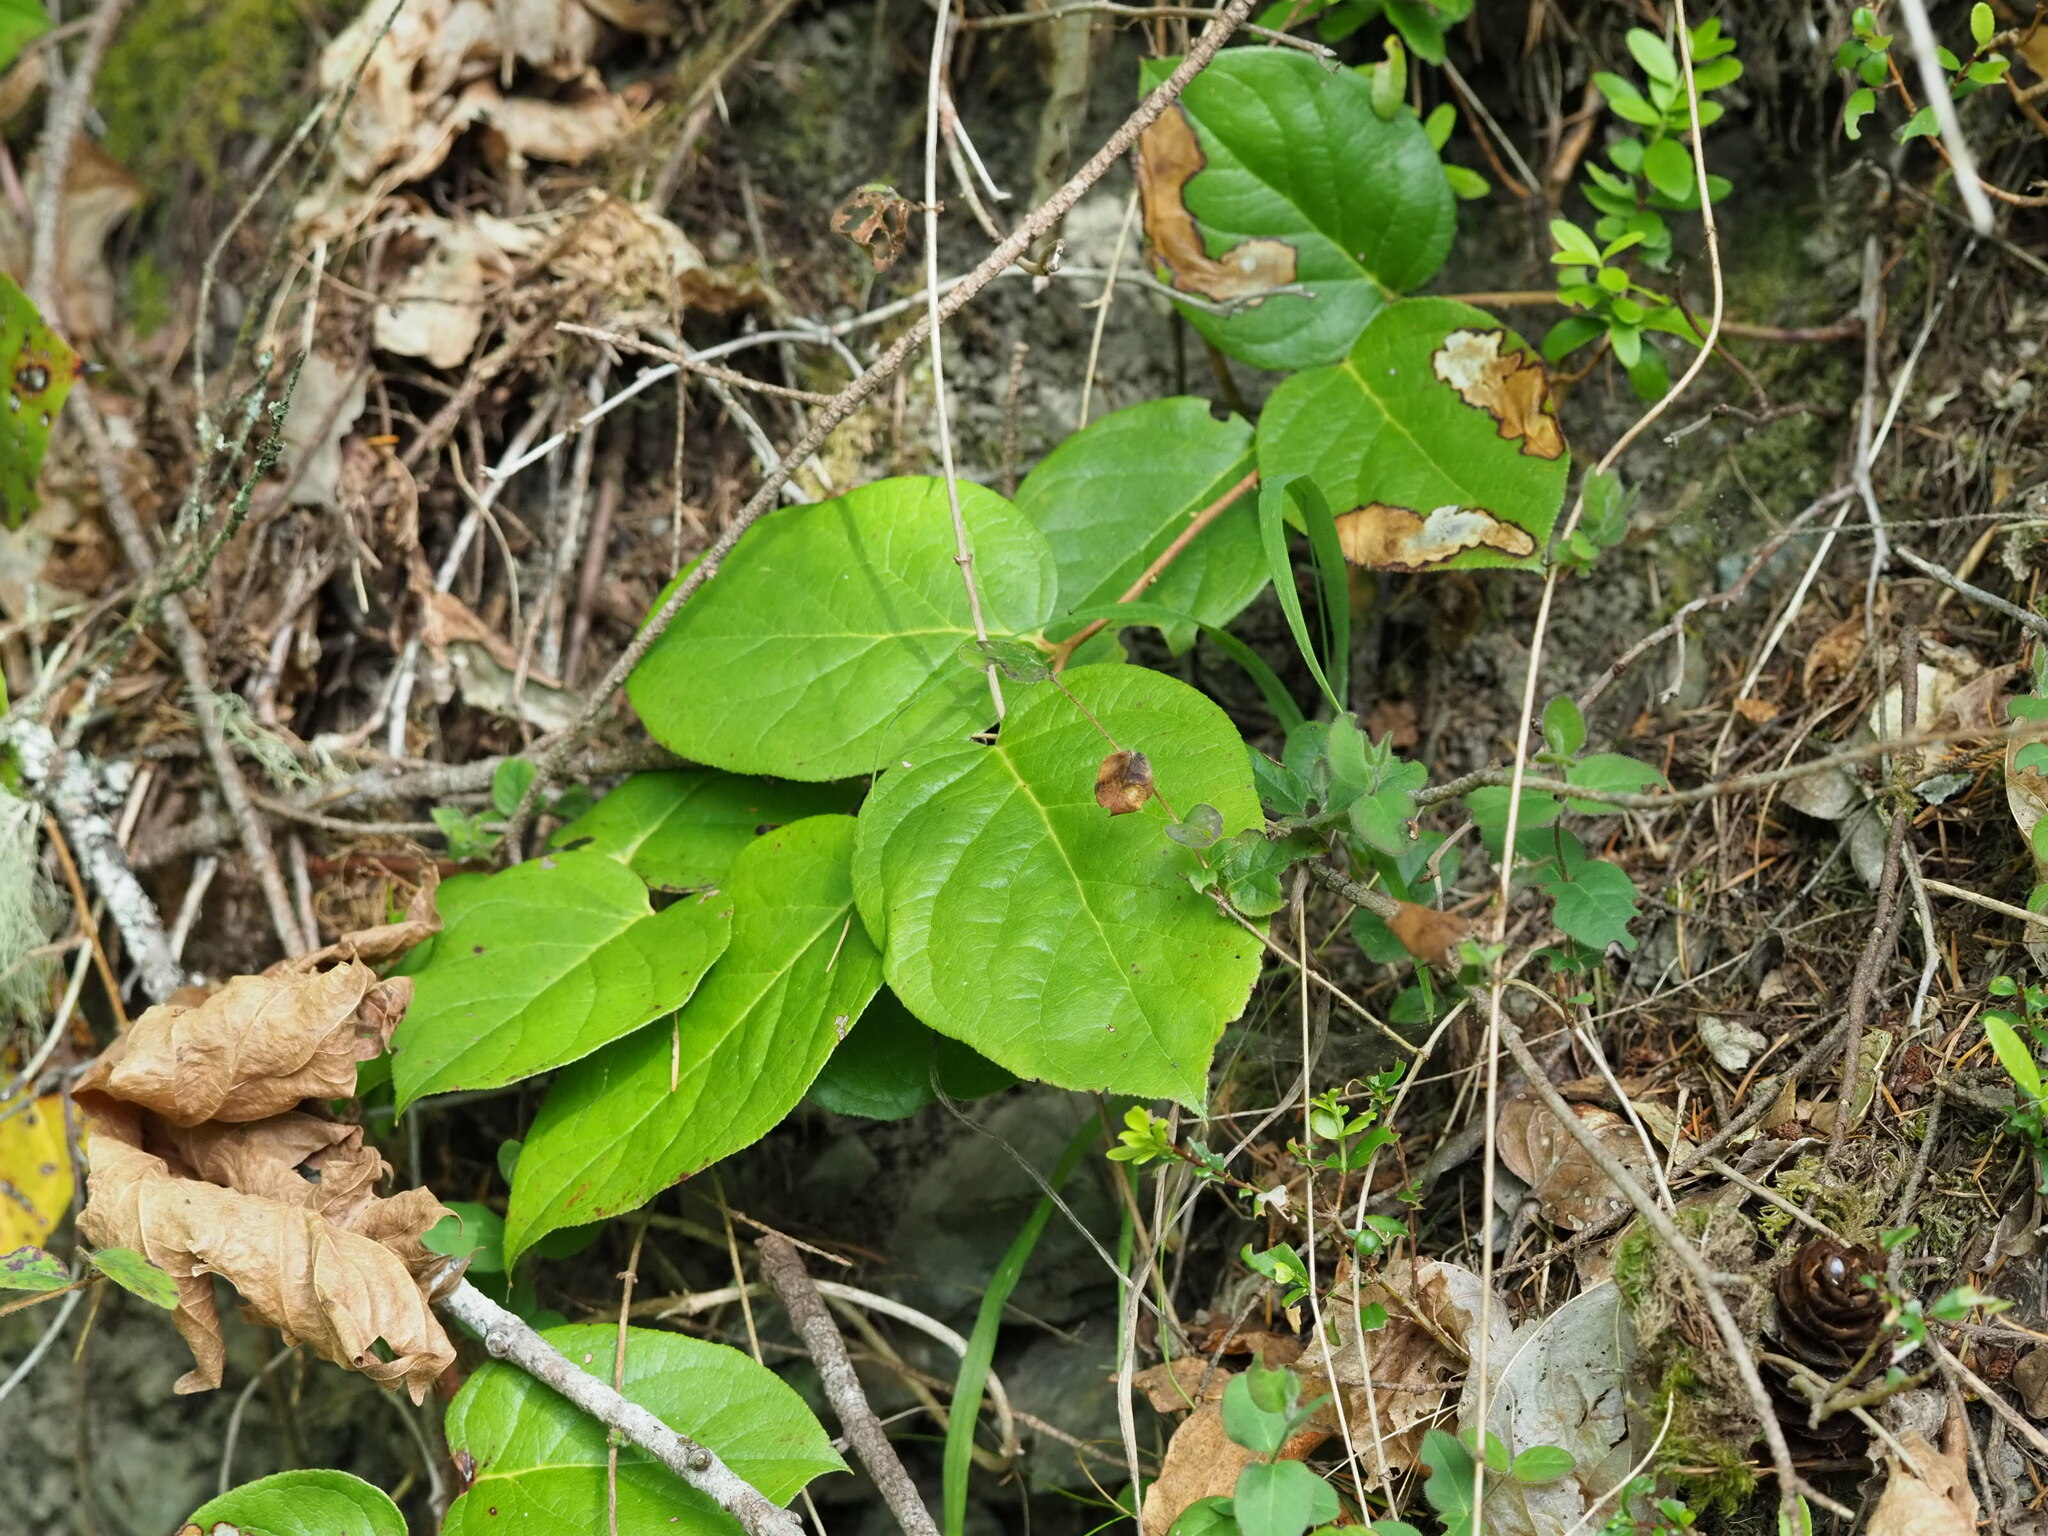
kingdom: Plantae
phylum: Tracheophyta
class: Magnoliopsida
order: Ericales
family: Ericaceae
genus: Gaultheria
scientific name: Gaultheria shallon
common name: Shallon
